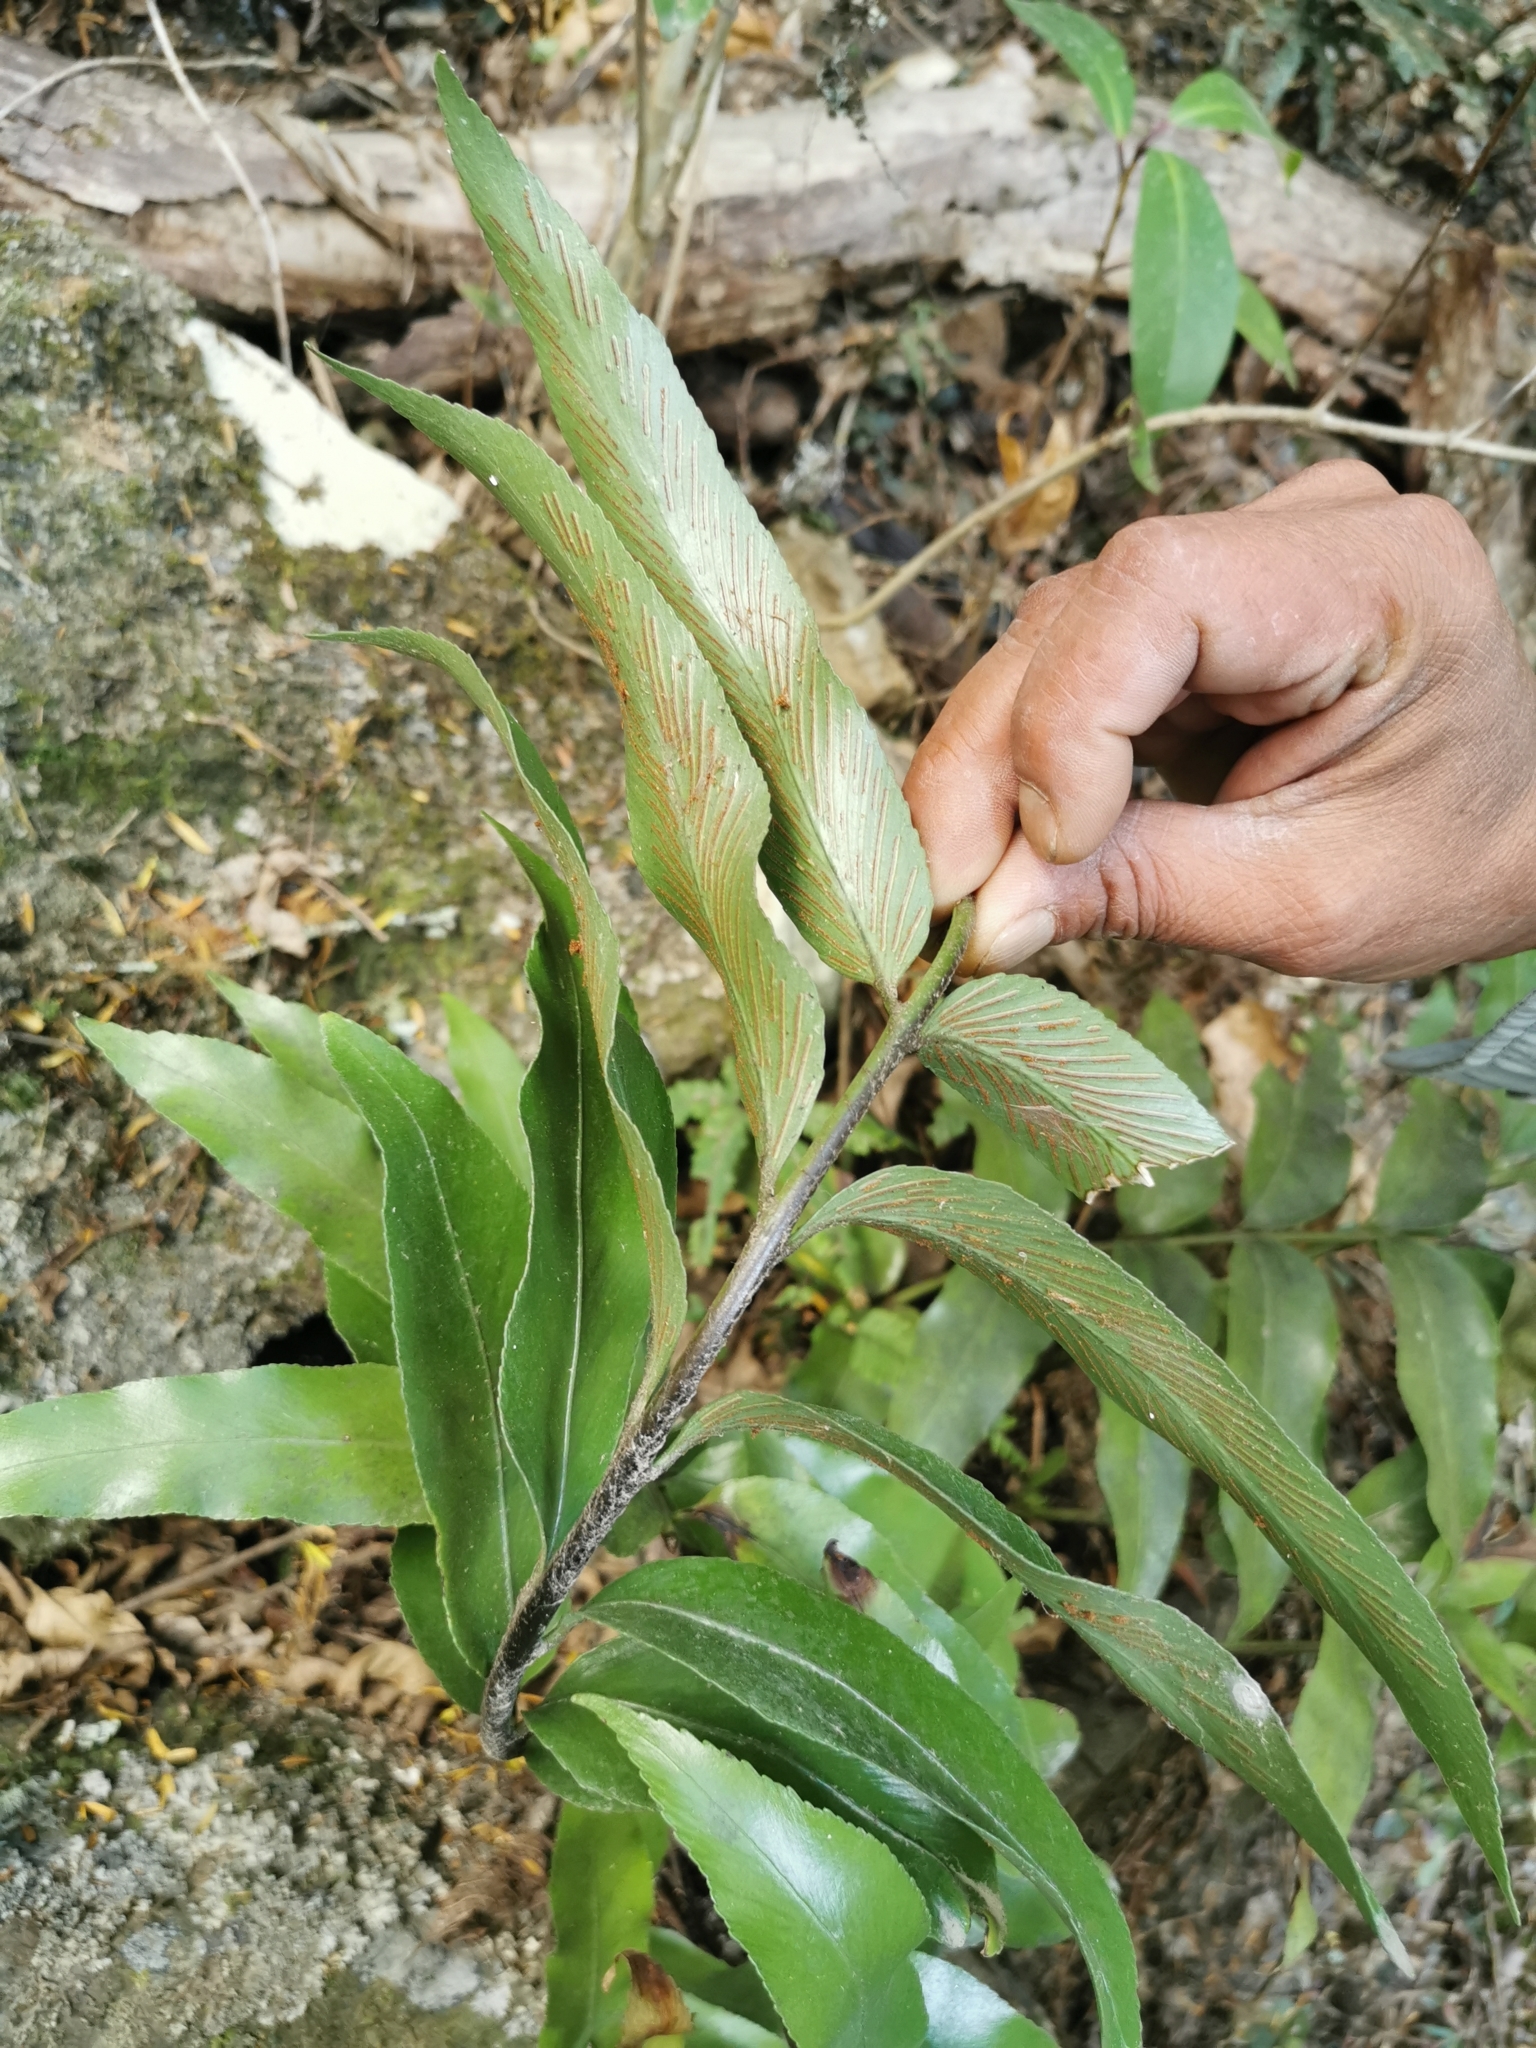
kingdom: Plantae
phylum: Tracheophyta
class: Polypodiopsida
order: Polypodiales
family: Aspleniaceae
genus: Asplenium
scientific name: Asplenium oblongifolium
